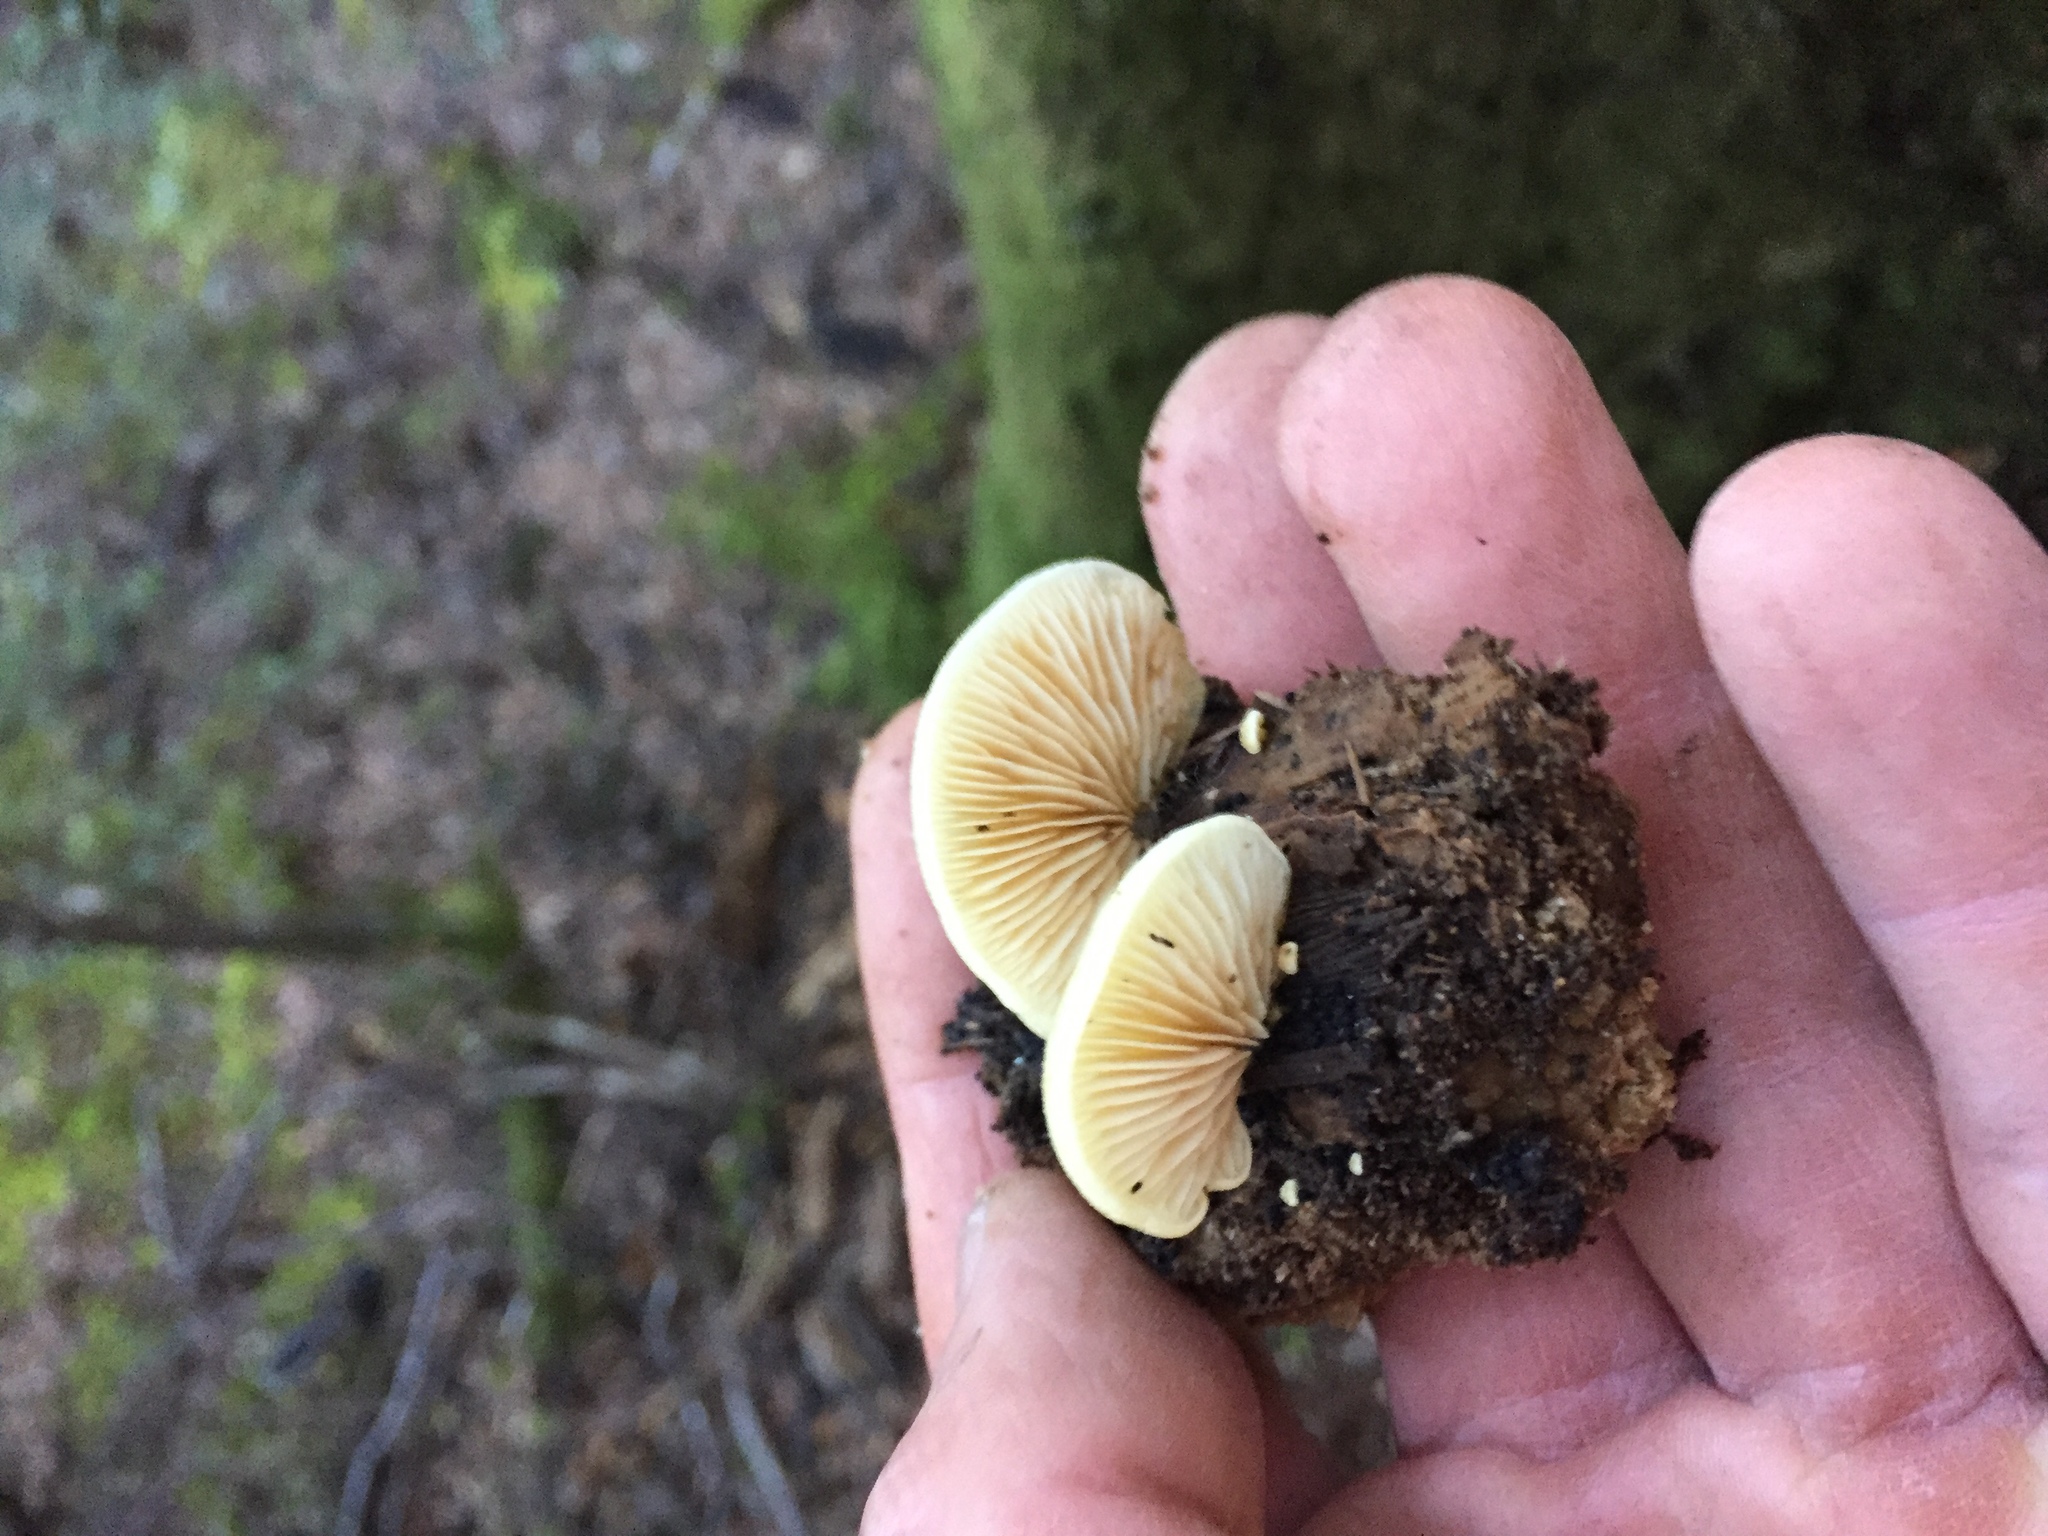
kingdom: Fungi
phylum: Basidiomycota
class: Agaricomycetes
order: Agaricales
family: Crepidotaceae
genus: Crepidotus
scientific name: Crepidotus praecipuus
